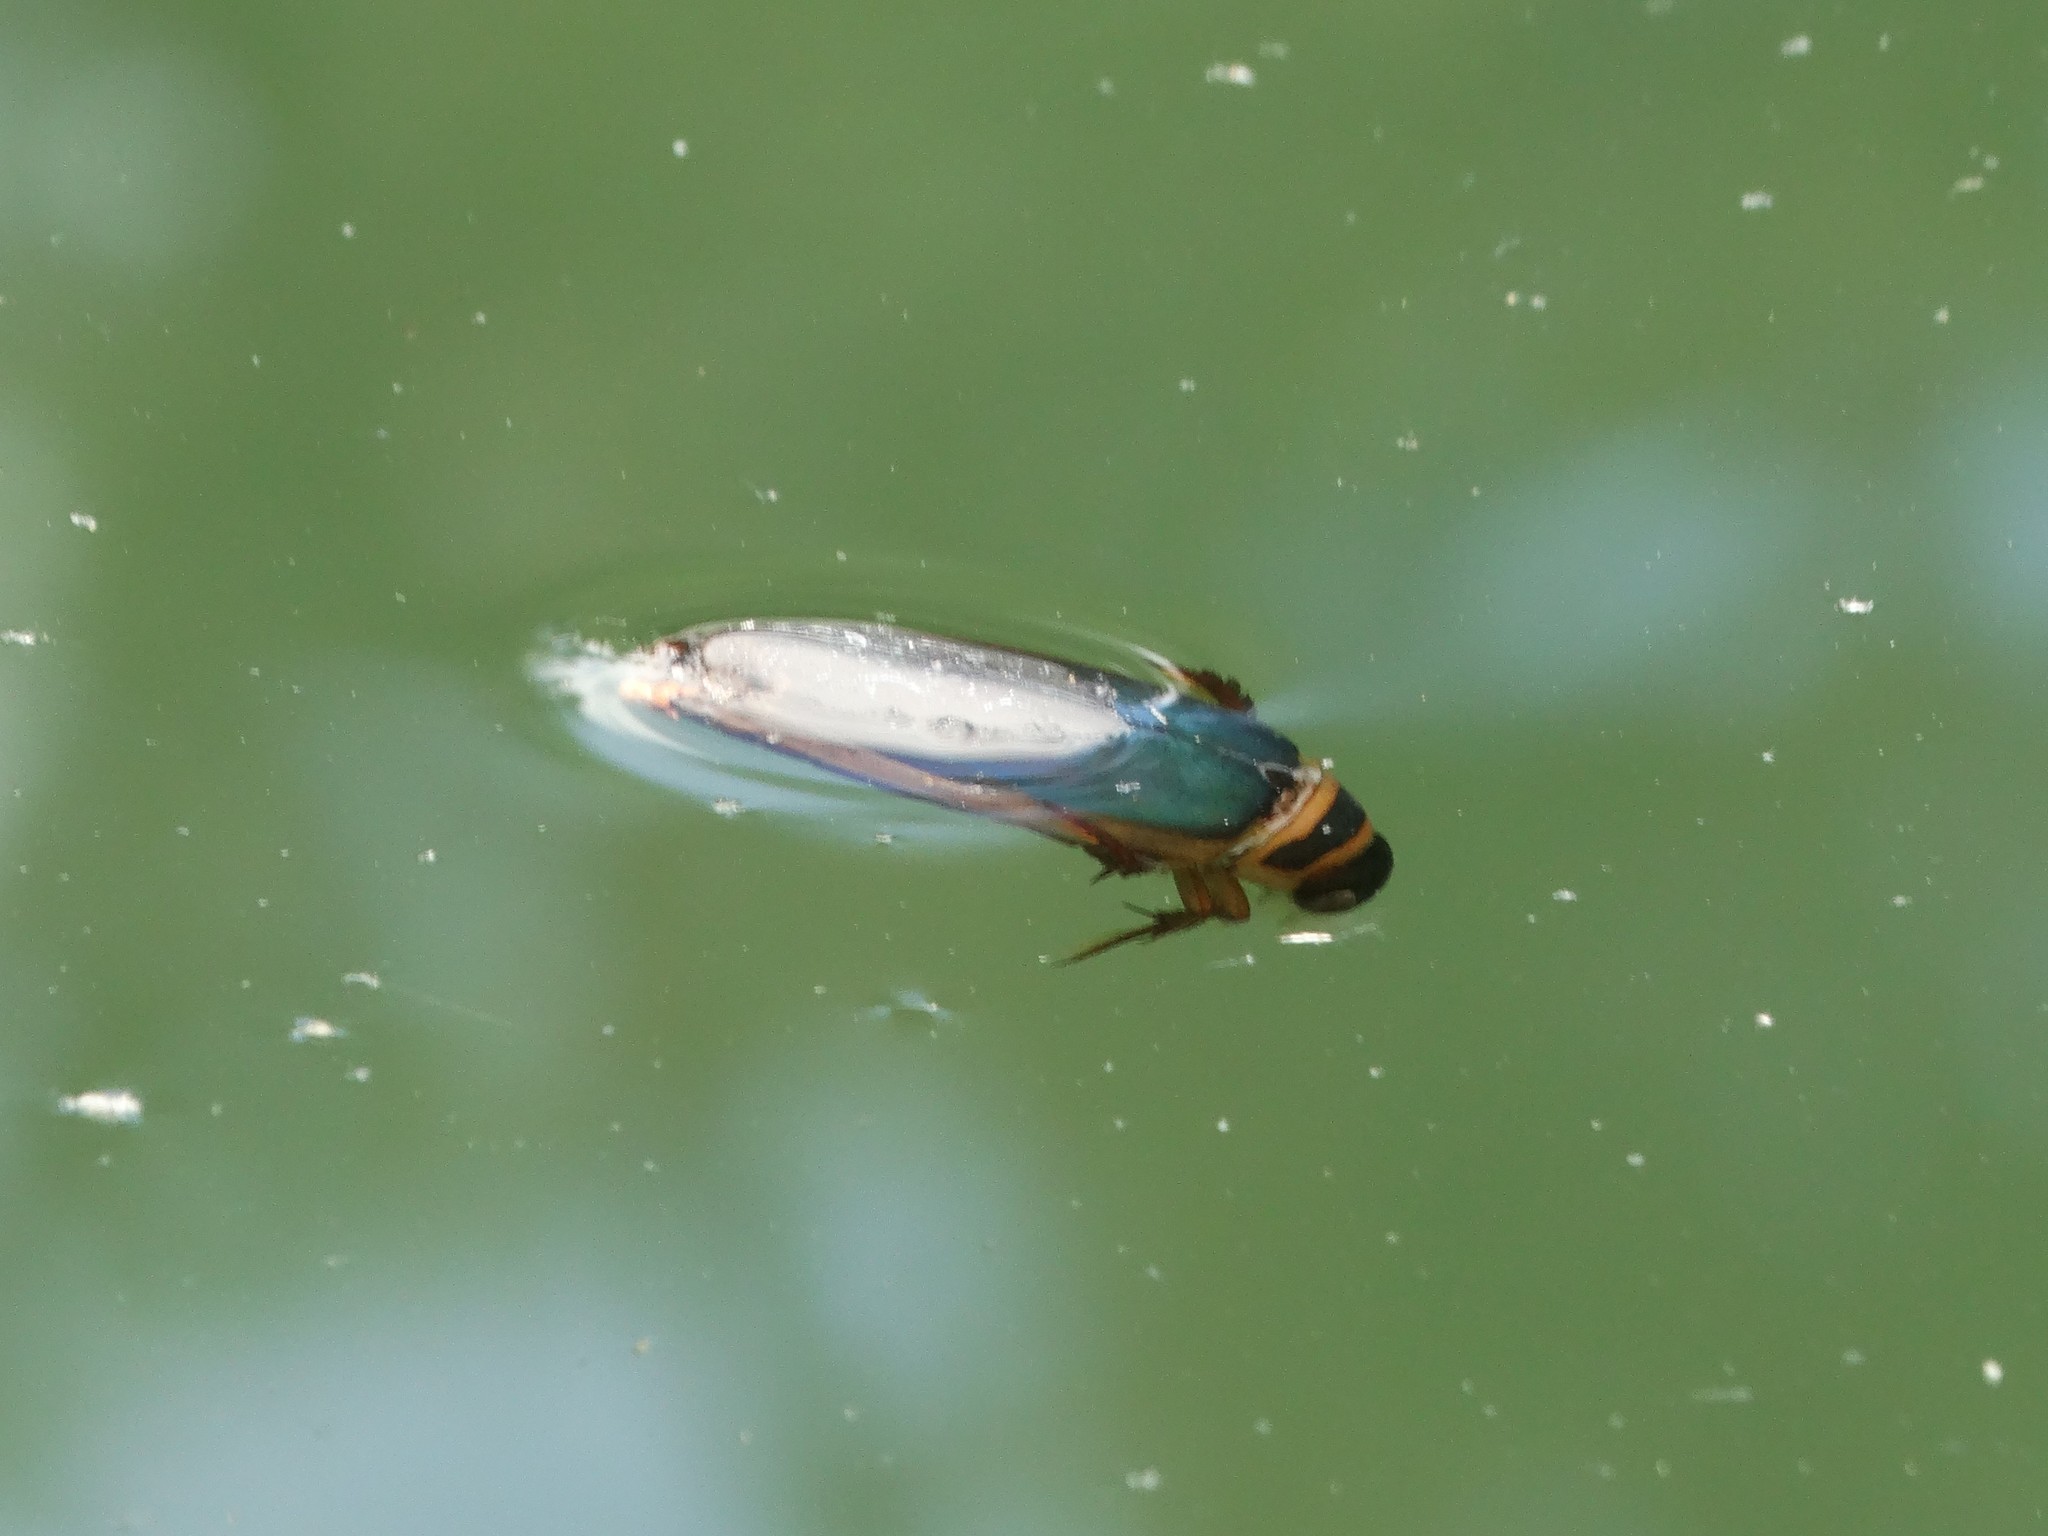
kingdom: Animalia
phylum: Arthropoda
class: Insecta
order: Coleoptera
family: Dytiscidae
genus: Dytiscus
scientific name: Dytiscus habilis
